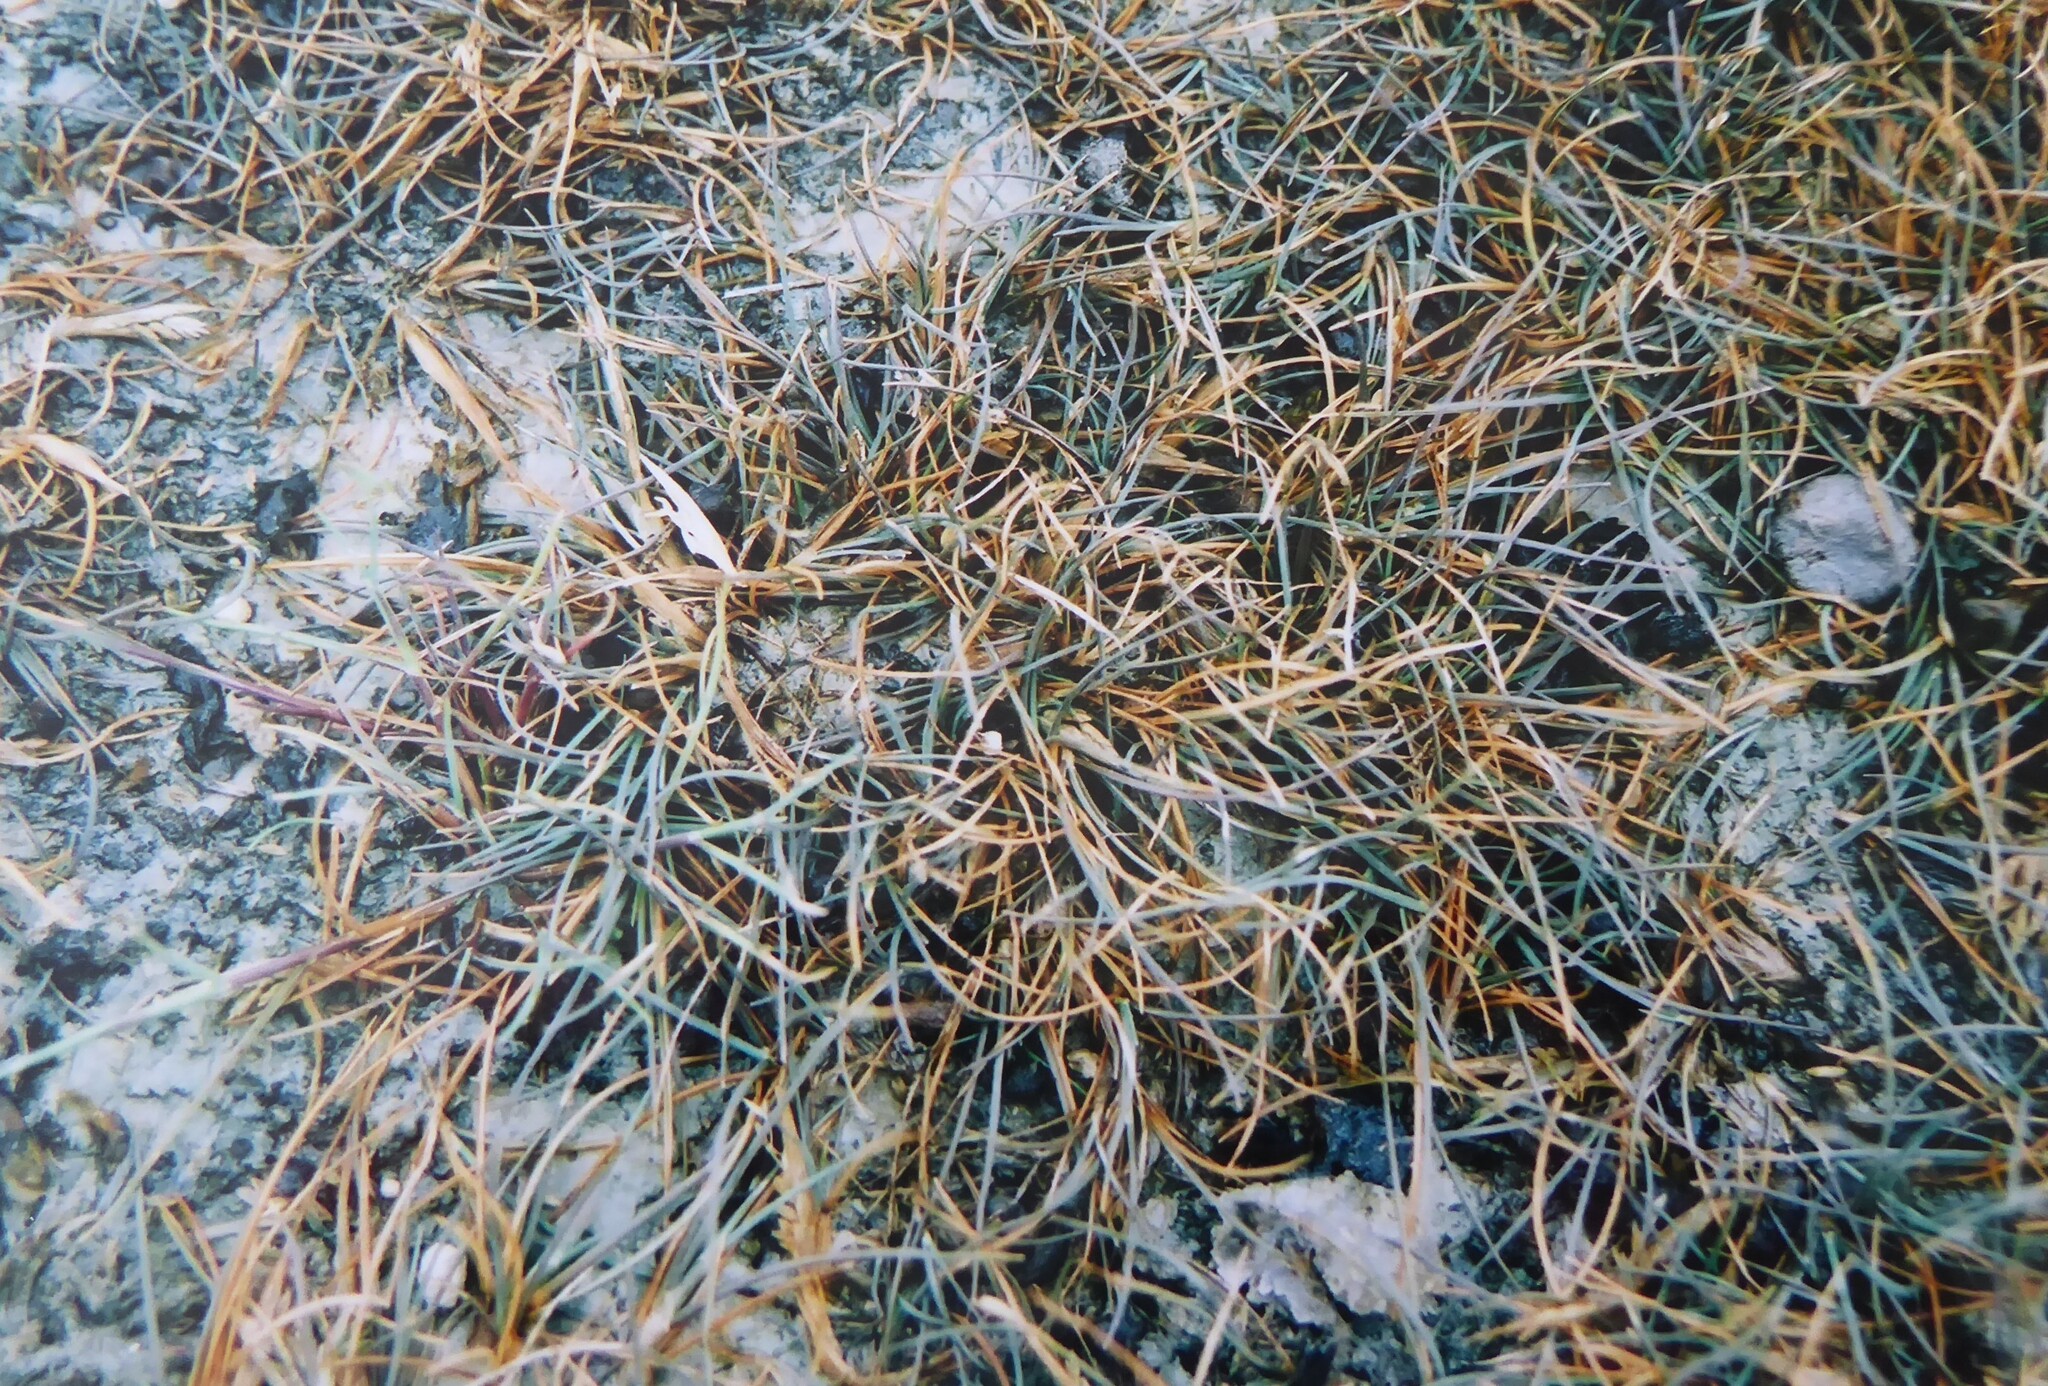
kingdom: Plantae
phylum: Tracheophyta
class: Liliopsida
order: Poales
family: Poaceae
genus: Puccinellia
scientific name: Puccinellia raroflorens
